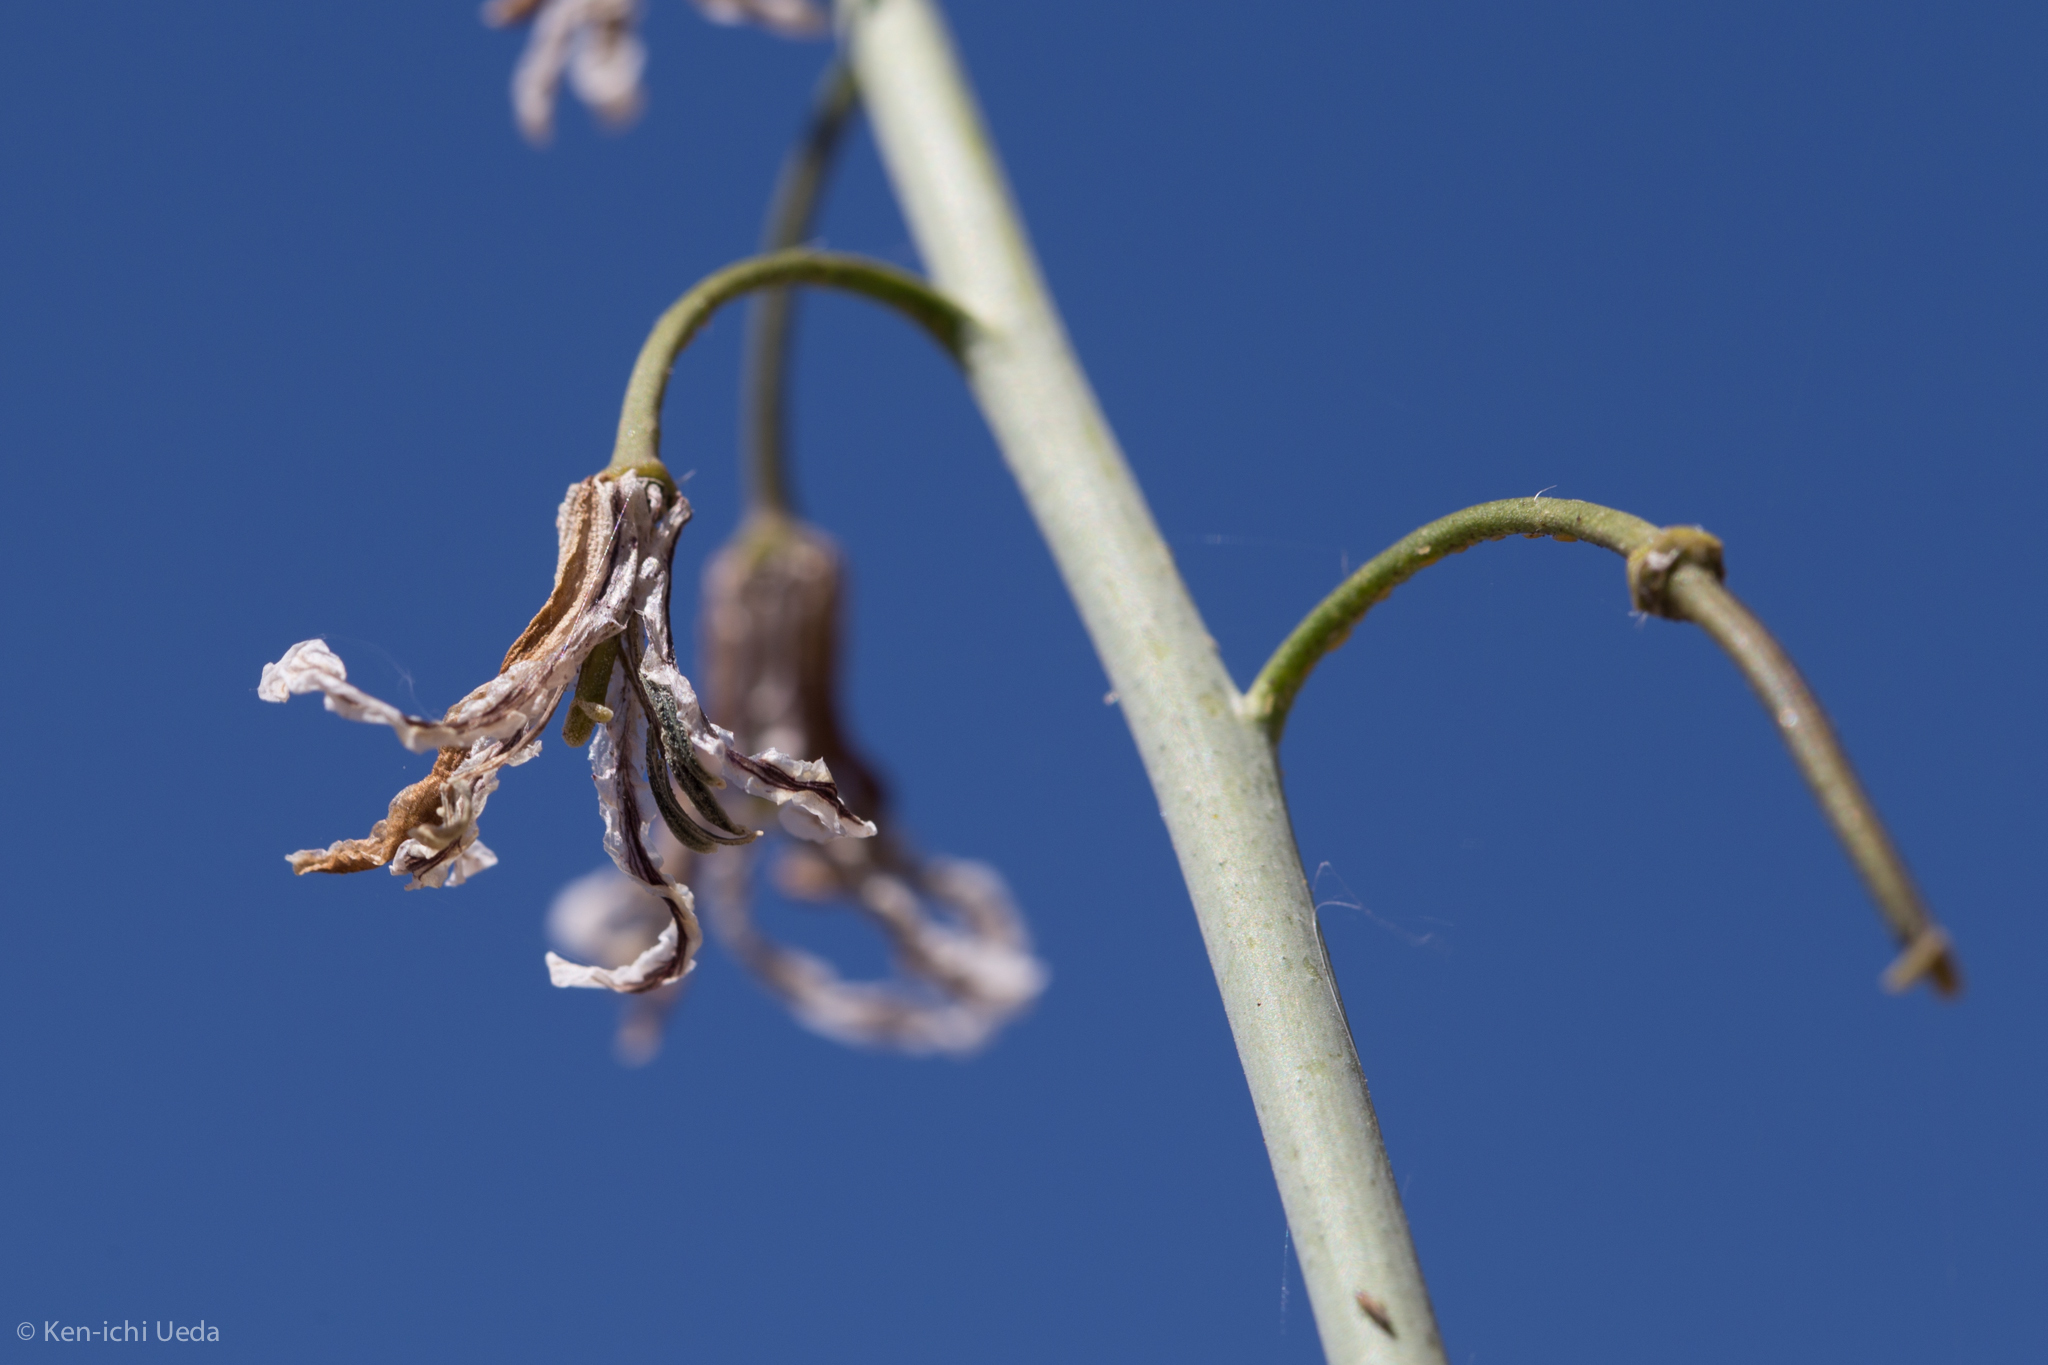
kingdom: Plantae
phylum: Tracheophyta
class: Magnoliopsida
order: Brassicales
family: Brassicaceae
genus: Streptanthus
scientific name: Streptanthus coulteri
